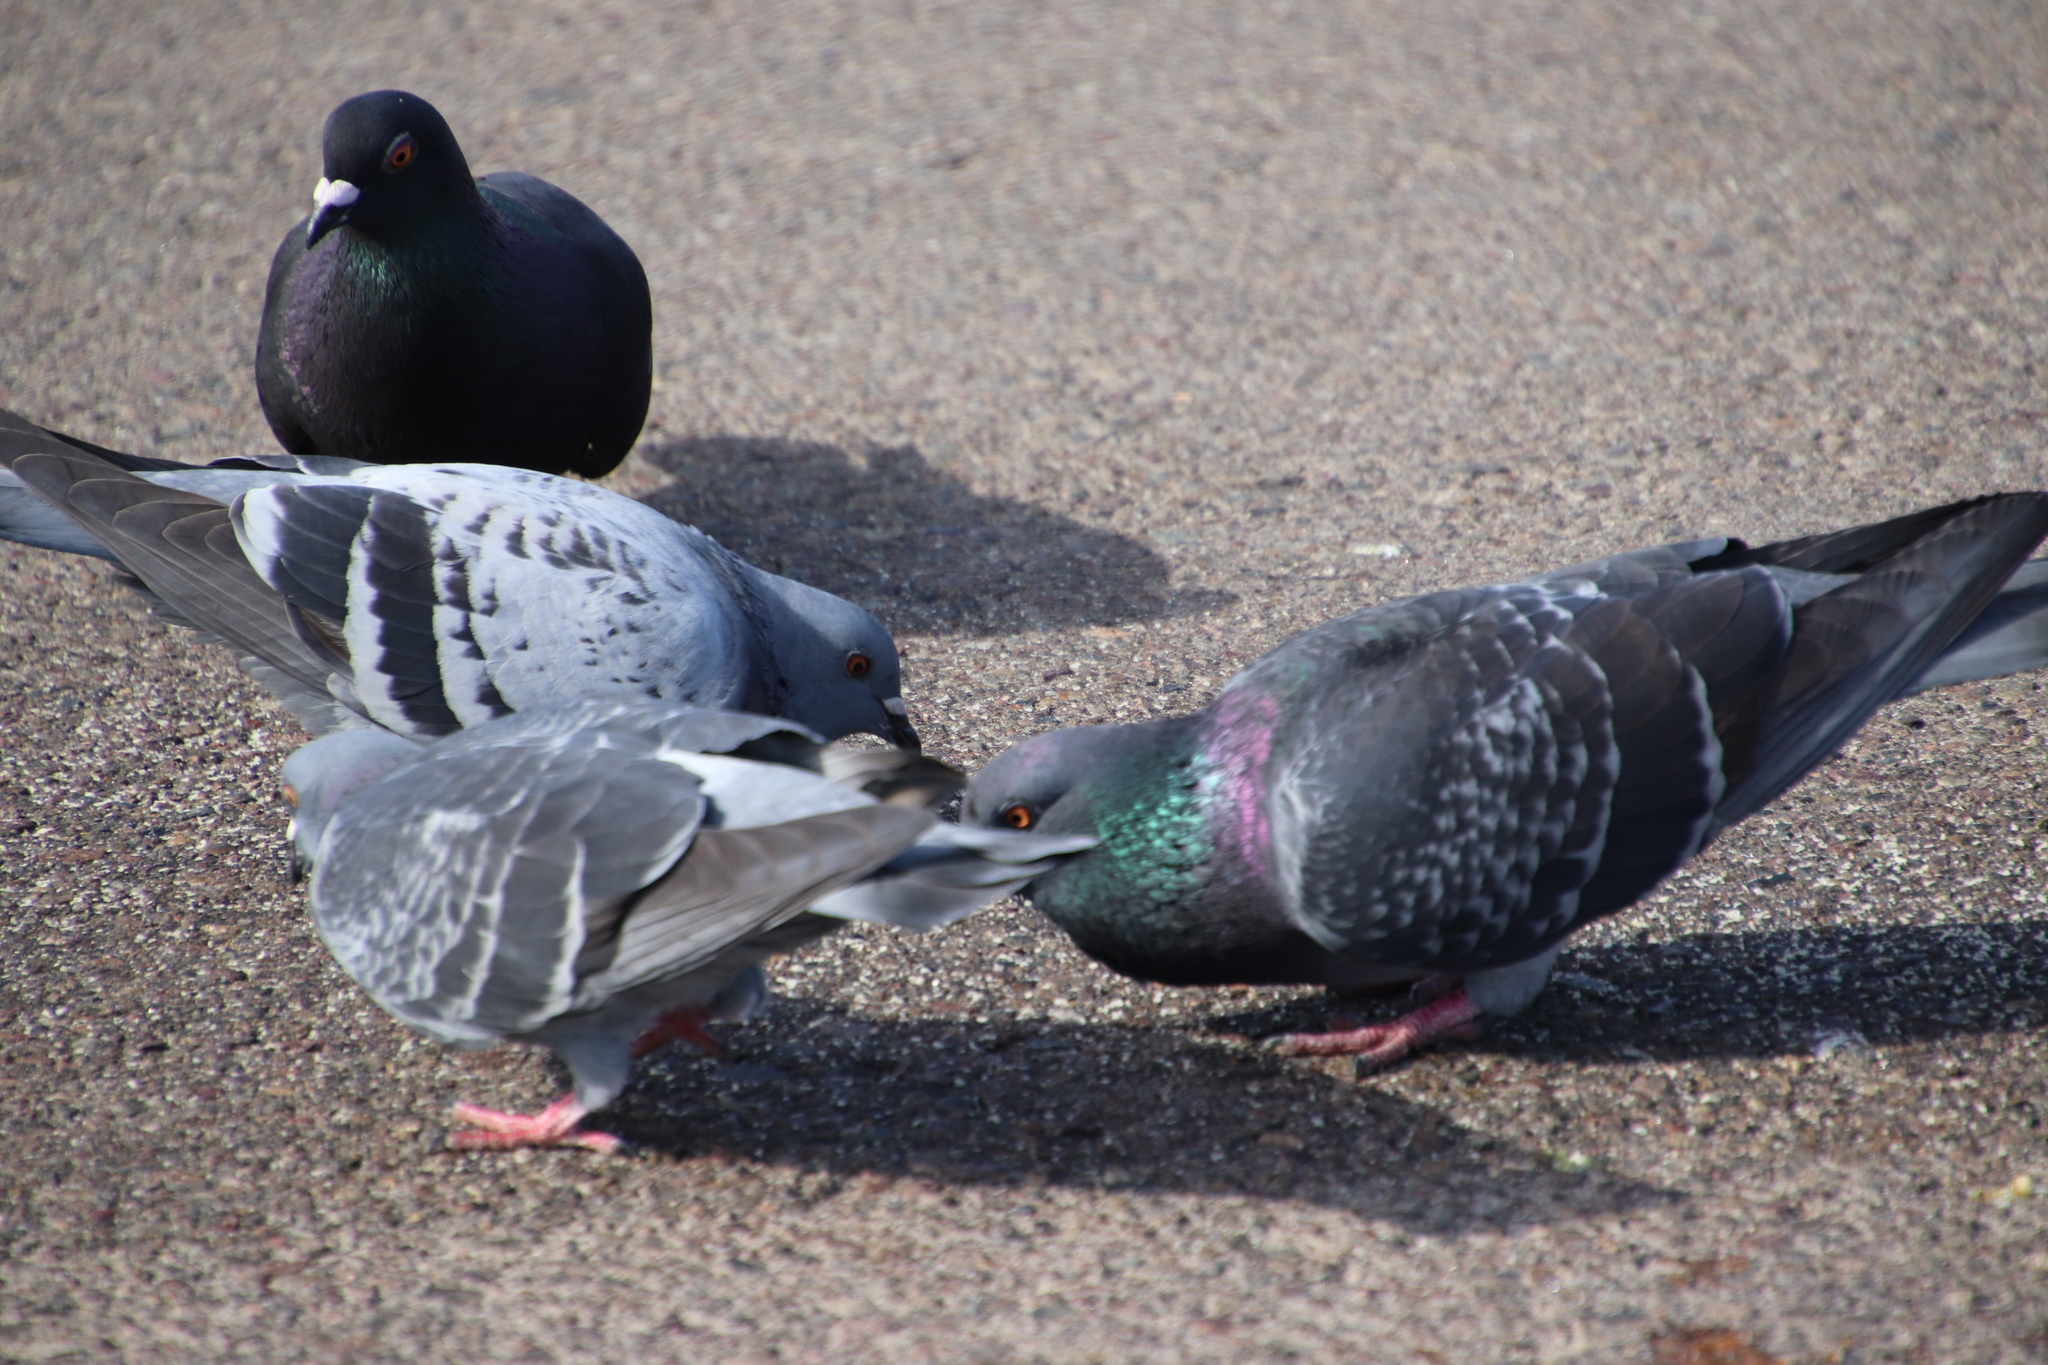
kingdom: Animalia
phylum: Chordata
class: Aves
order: Columbiformes
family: Columbidae
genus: Columba
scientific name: Columba livia
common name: Rock pigeon
